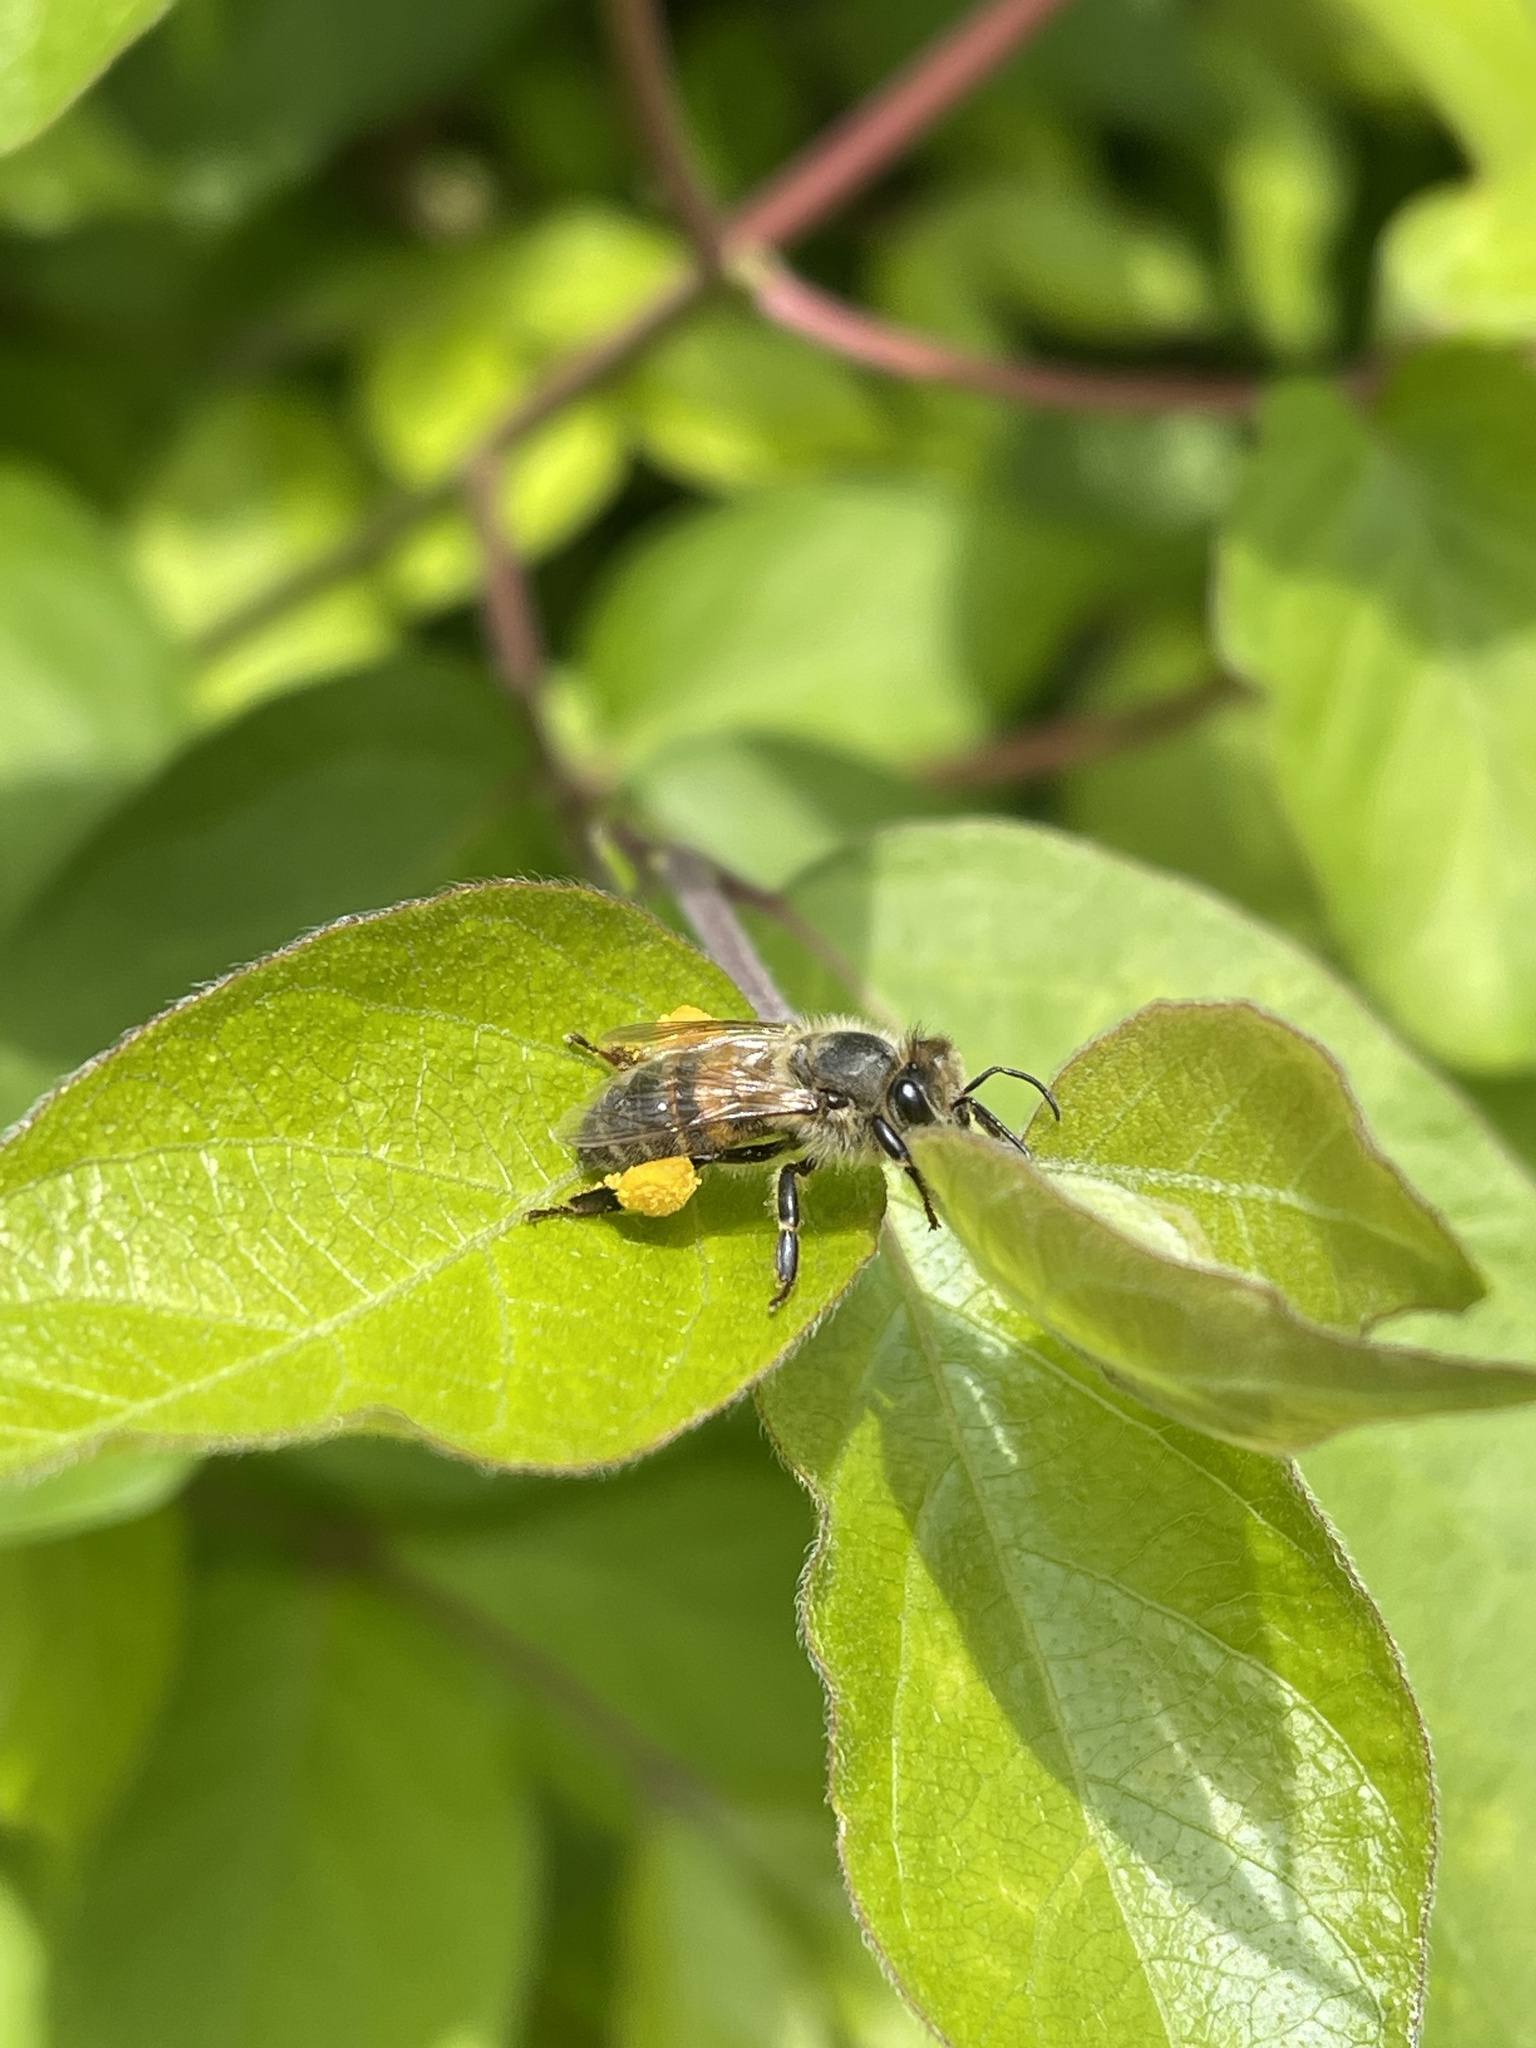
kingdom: Animalia
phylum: Arthropoda
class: Insecta
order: Hymenoptera
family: Apidae
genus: Apis
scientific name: Apis mellifera
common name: Honey bee
